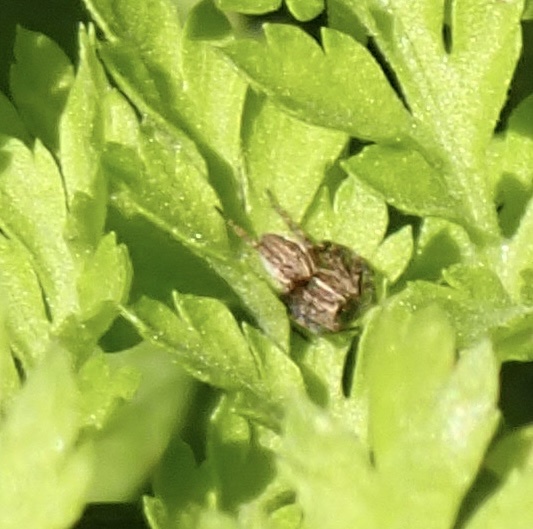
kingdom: Animalia
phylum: Arthropoda
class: Arachnida
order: Araneae
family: Pisauridae
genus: Pisaura
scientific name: Pisaura mirabilis
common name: Tent spider
